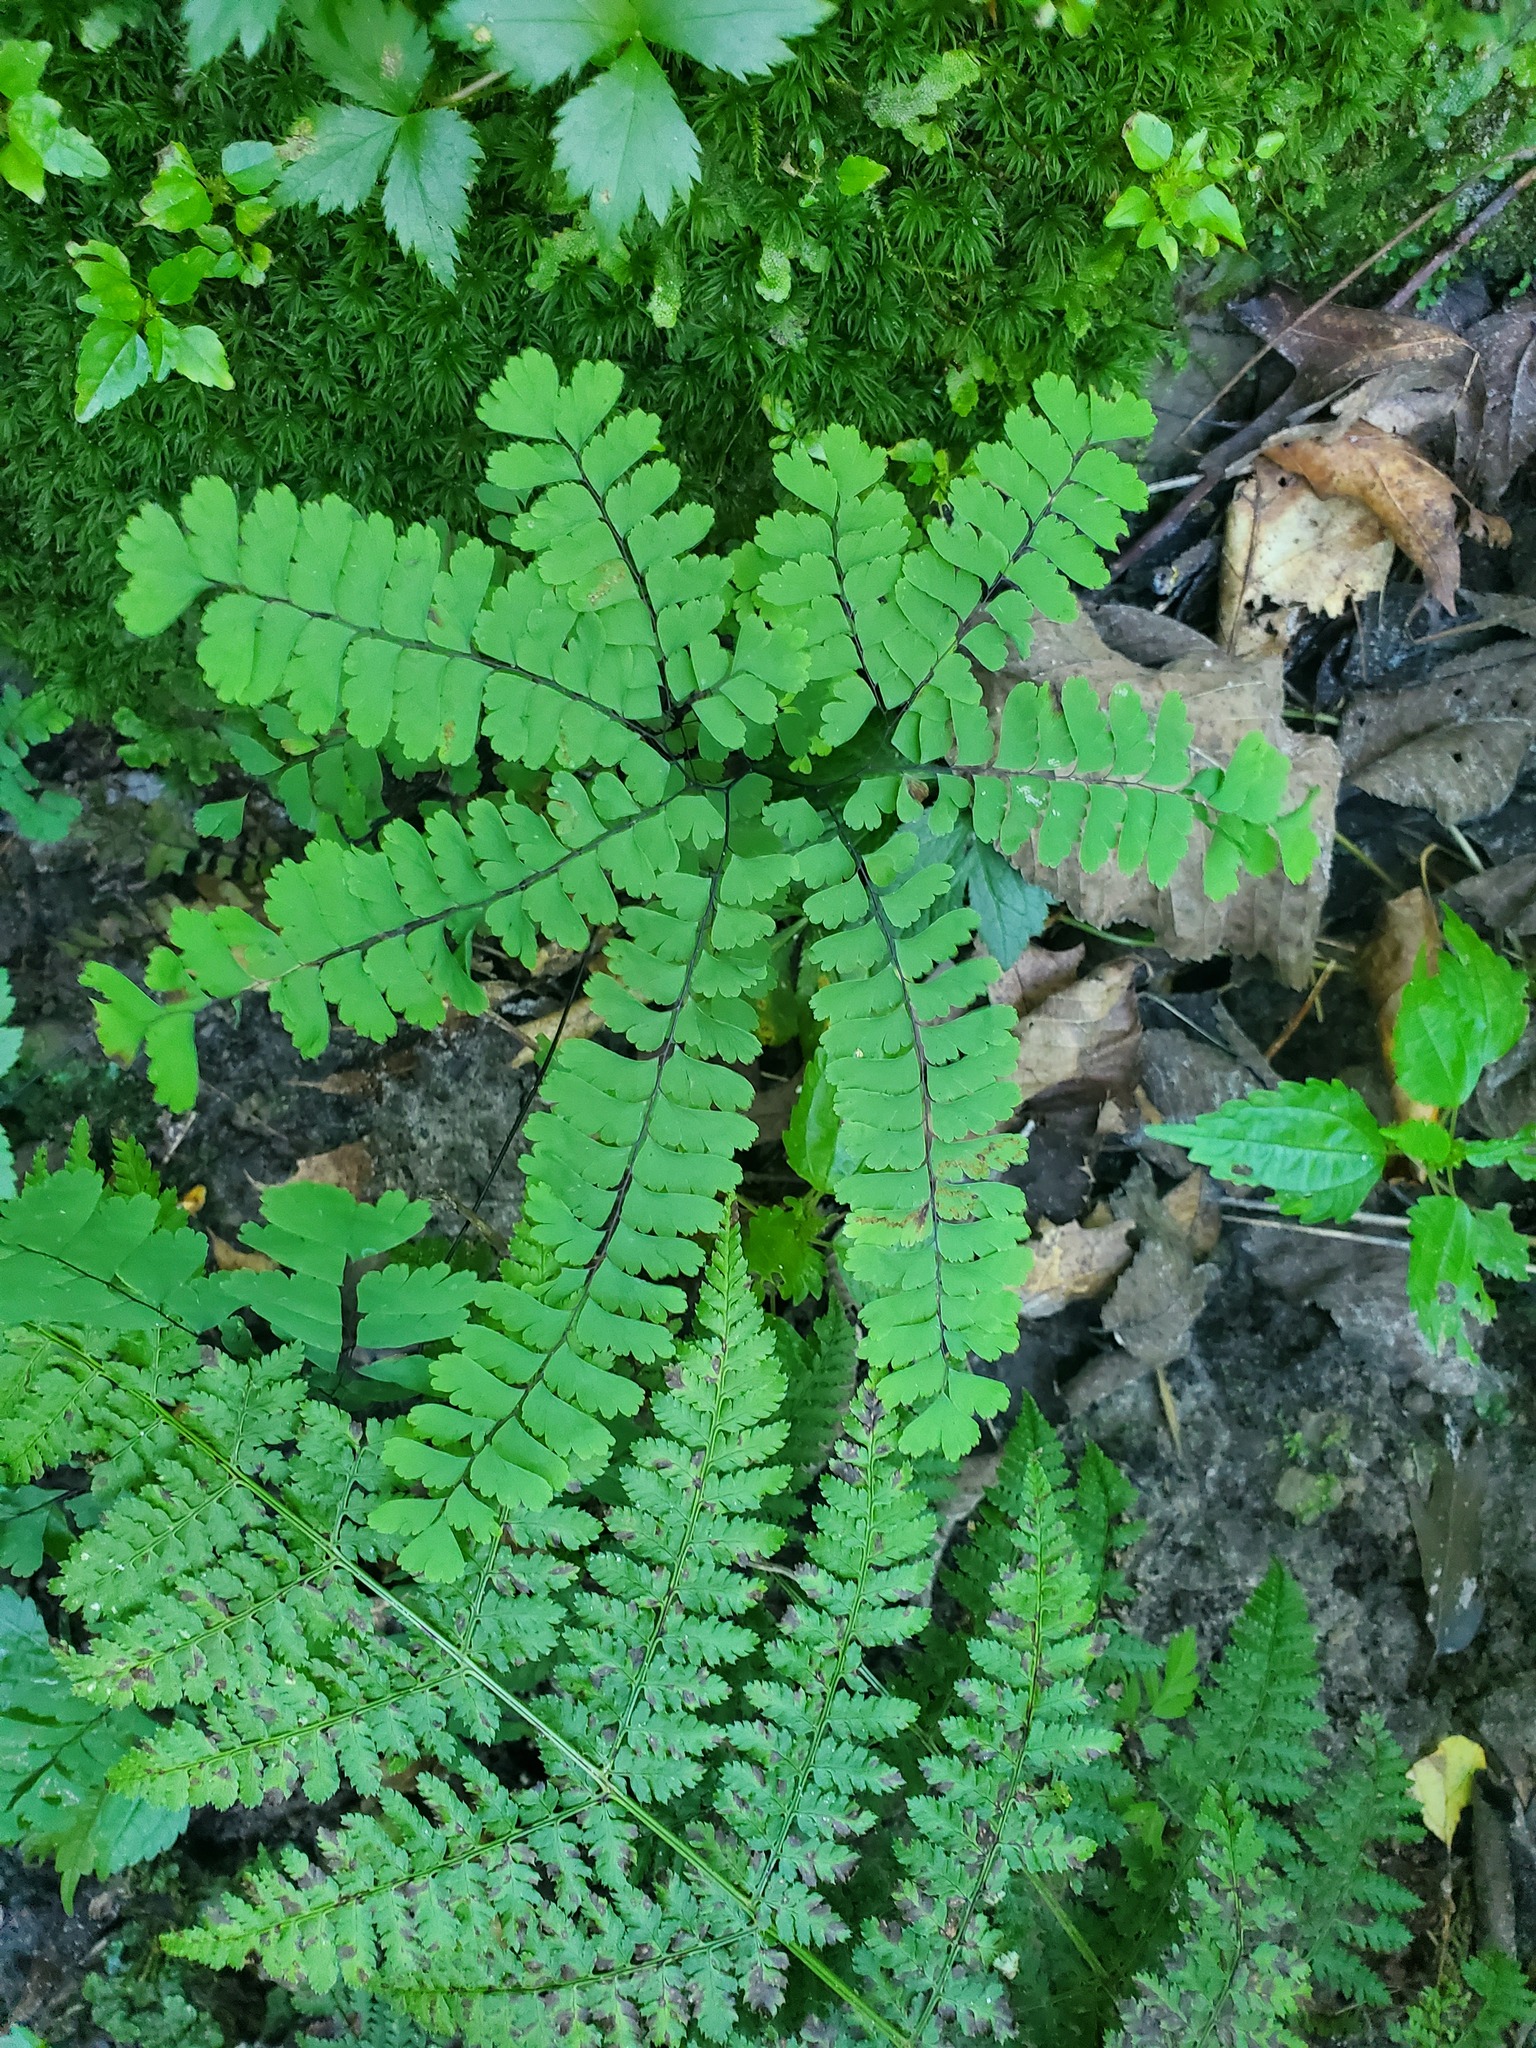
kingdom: Plantae
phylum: Tracheophyta
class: Polypodiopsida
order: Polypodiales
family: Pteridaceae
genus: Adiantum
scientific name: Adiantum pedatum
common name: Five-finger fern
